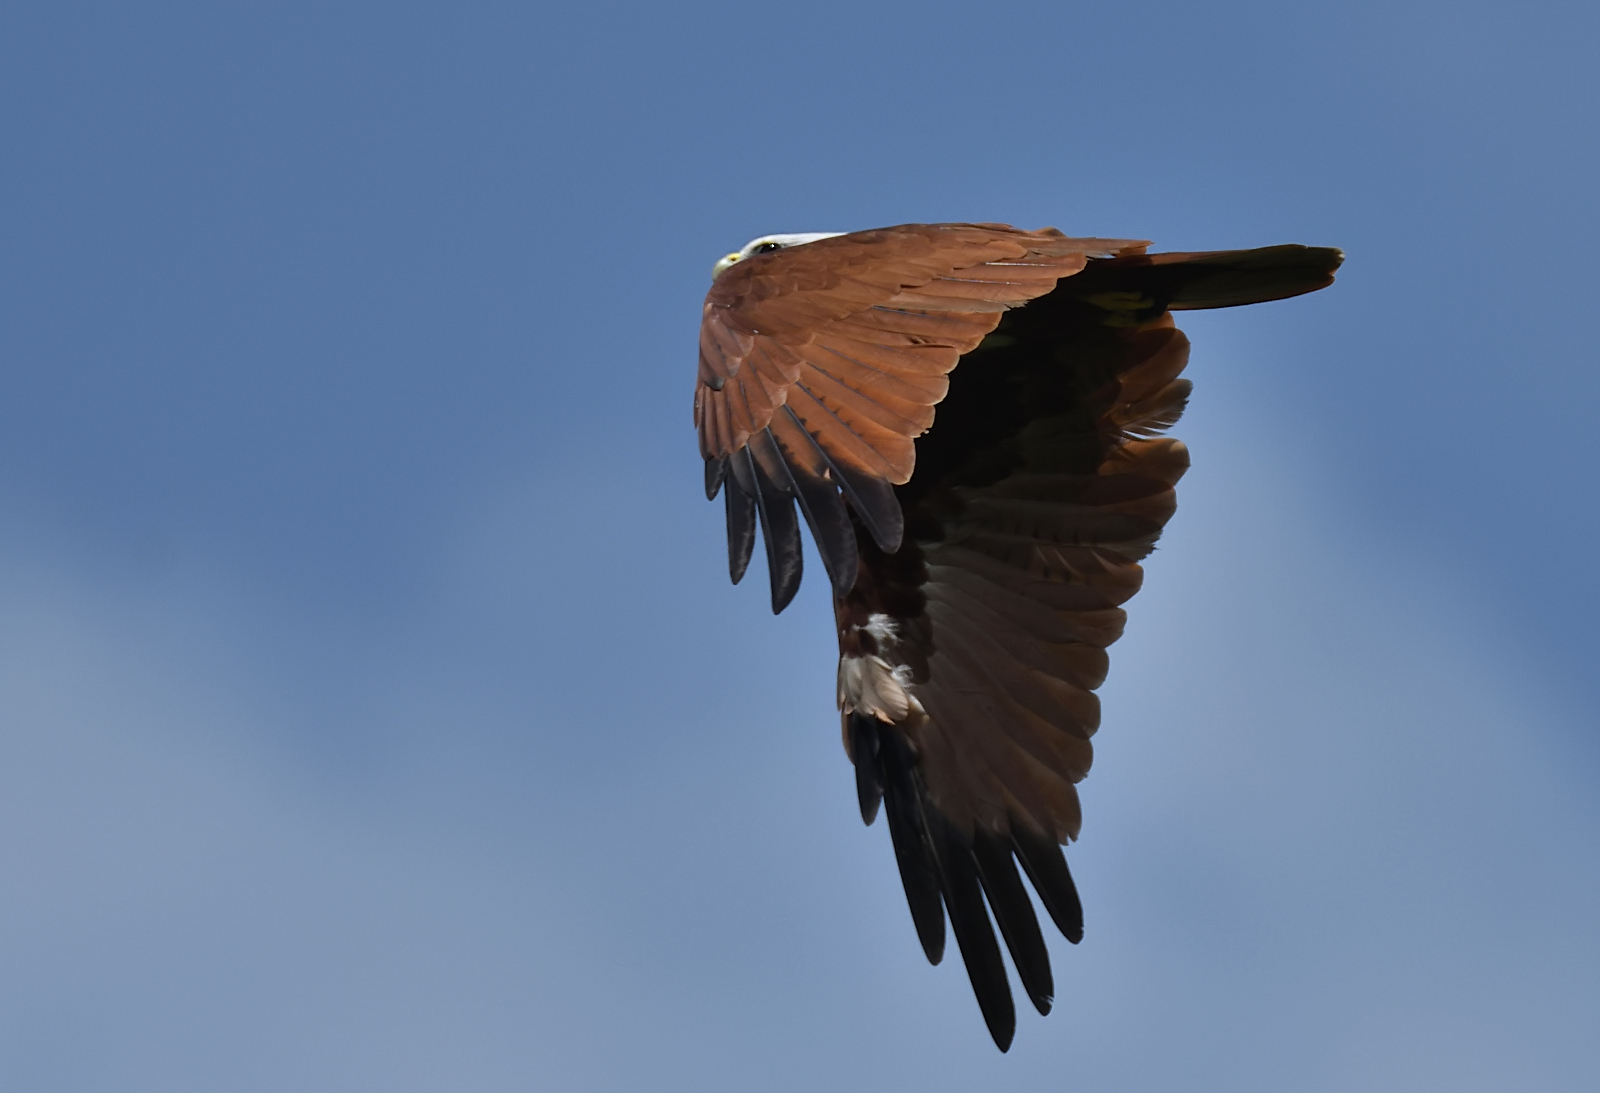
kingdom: Animalia
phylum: Chordata
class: Aves
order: Accipitriformes
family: Accipitridae
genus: Haliastur
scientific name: Haliastur indus
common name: Brahminy kite
